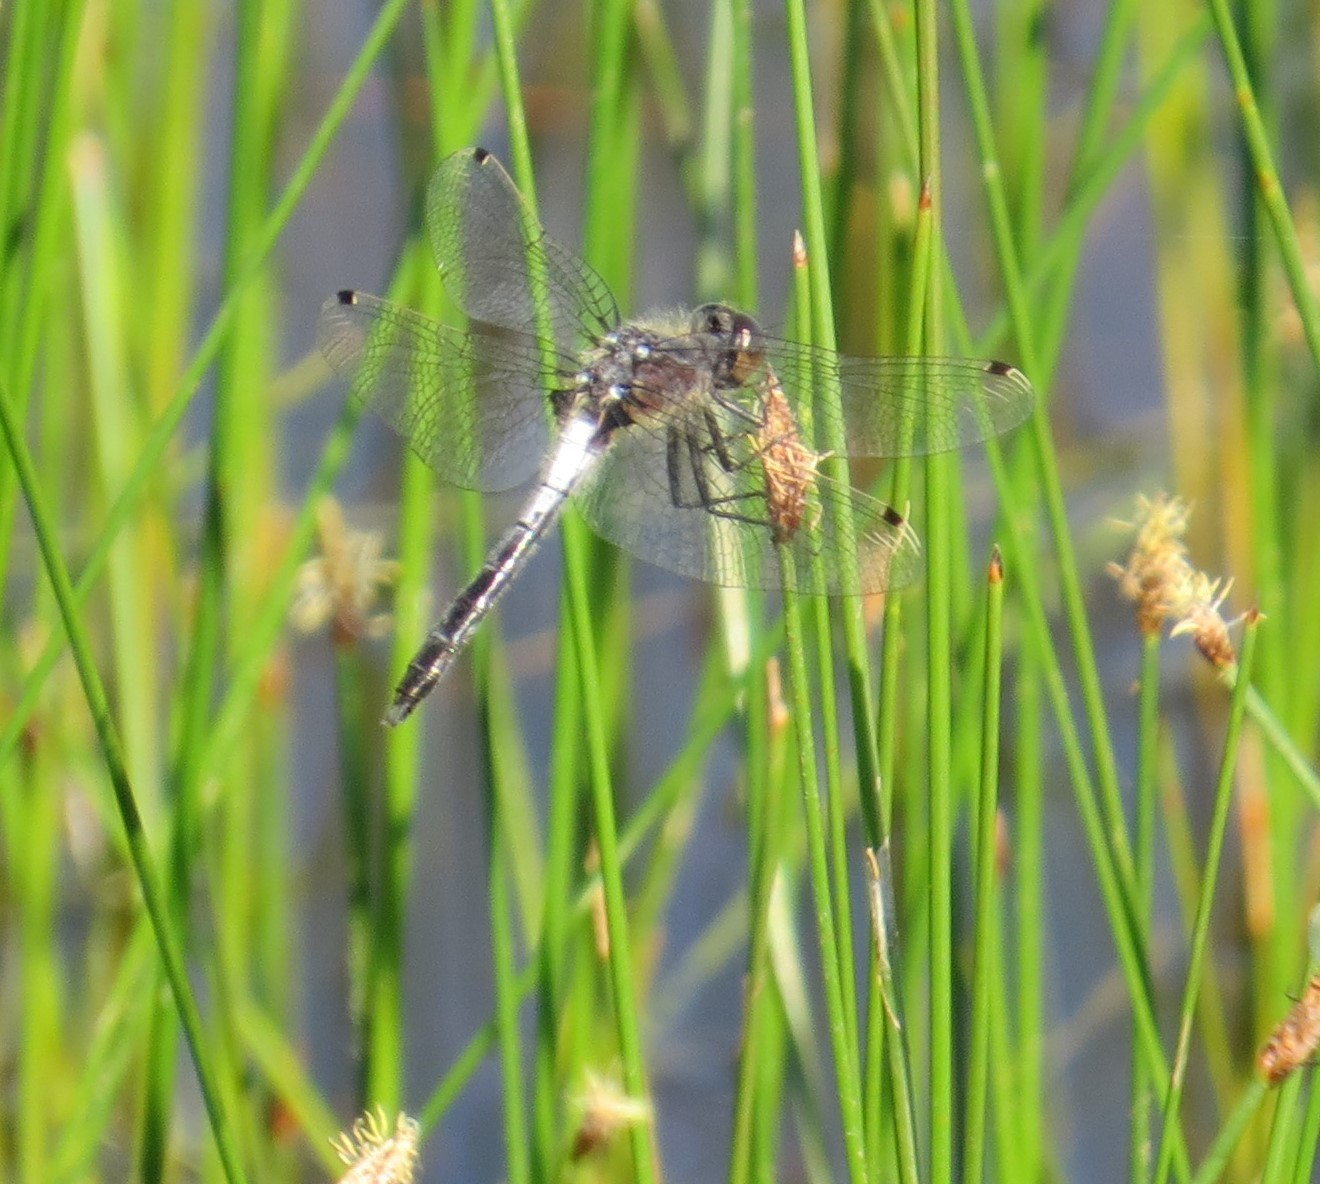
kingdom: Animalia
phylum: Arthropoda
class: Insecta
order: Odonata
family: Libellulidae
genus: Leucorrhinia
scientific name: Leucorrhinia frigida
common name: Frosted whiteface
